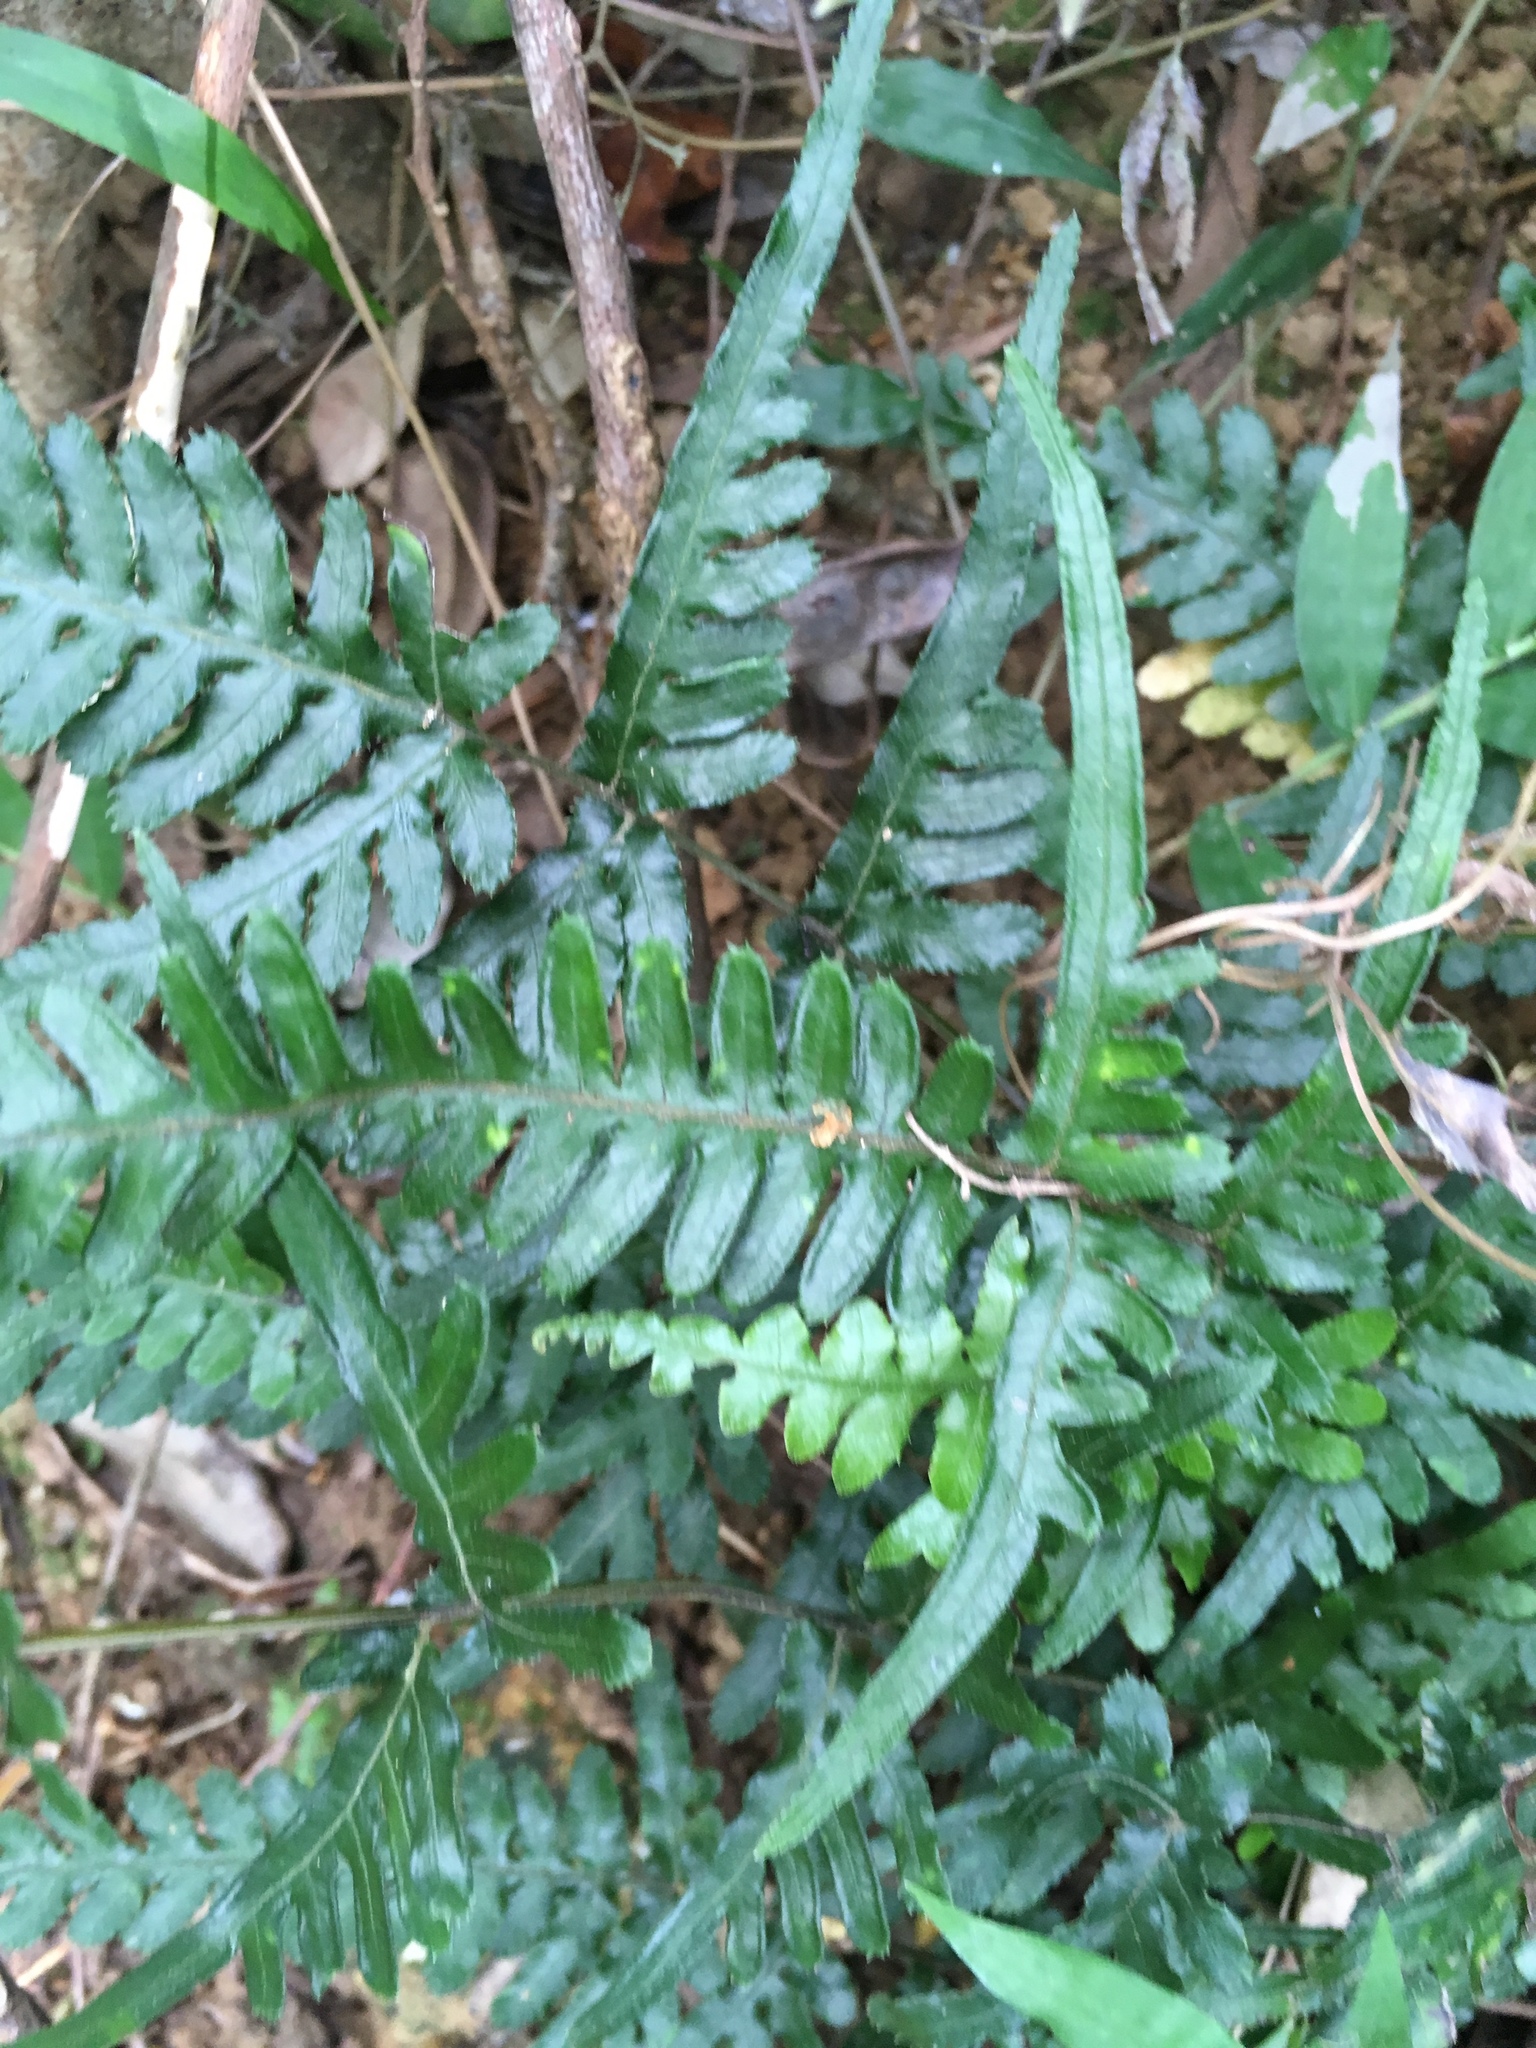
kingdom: Plantae
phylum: Tracheophyta
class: Polypodiopsida
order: Polypodiales
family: Pteridaceae
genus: Pteris
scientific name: Pteris dispar
